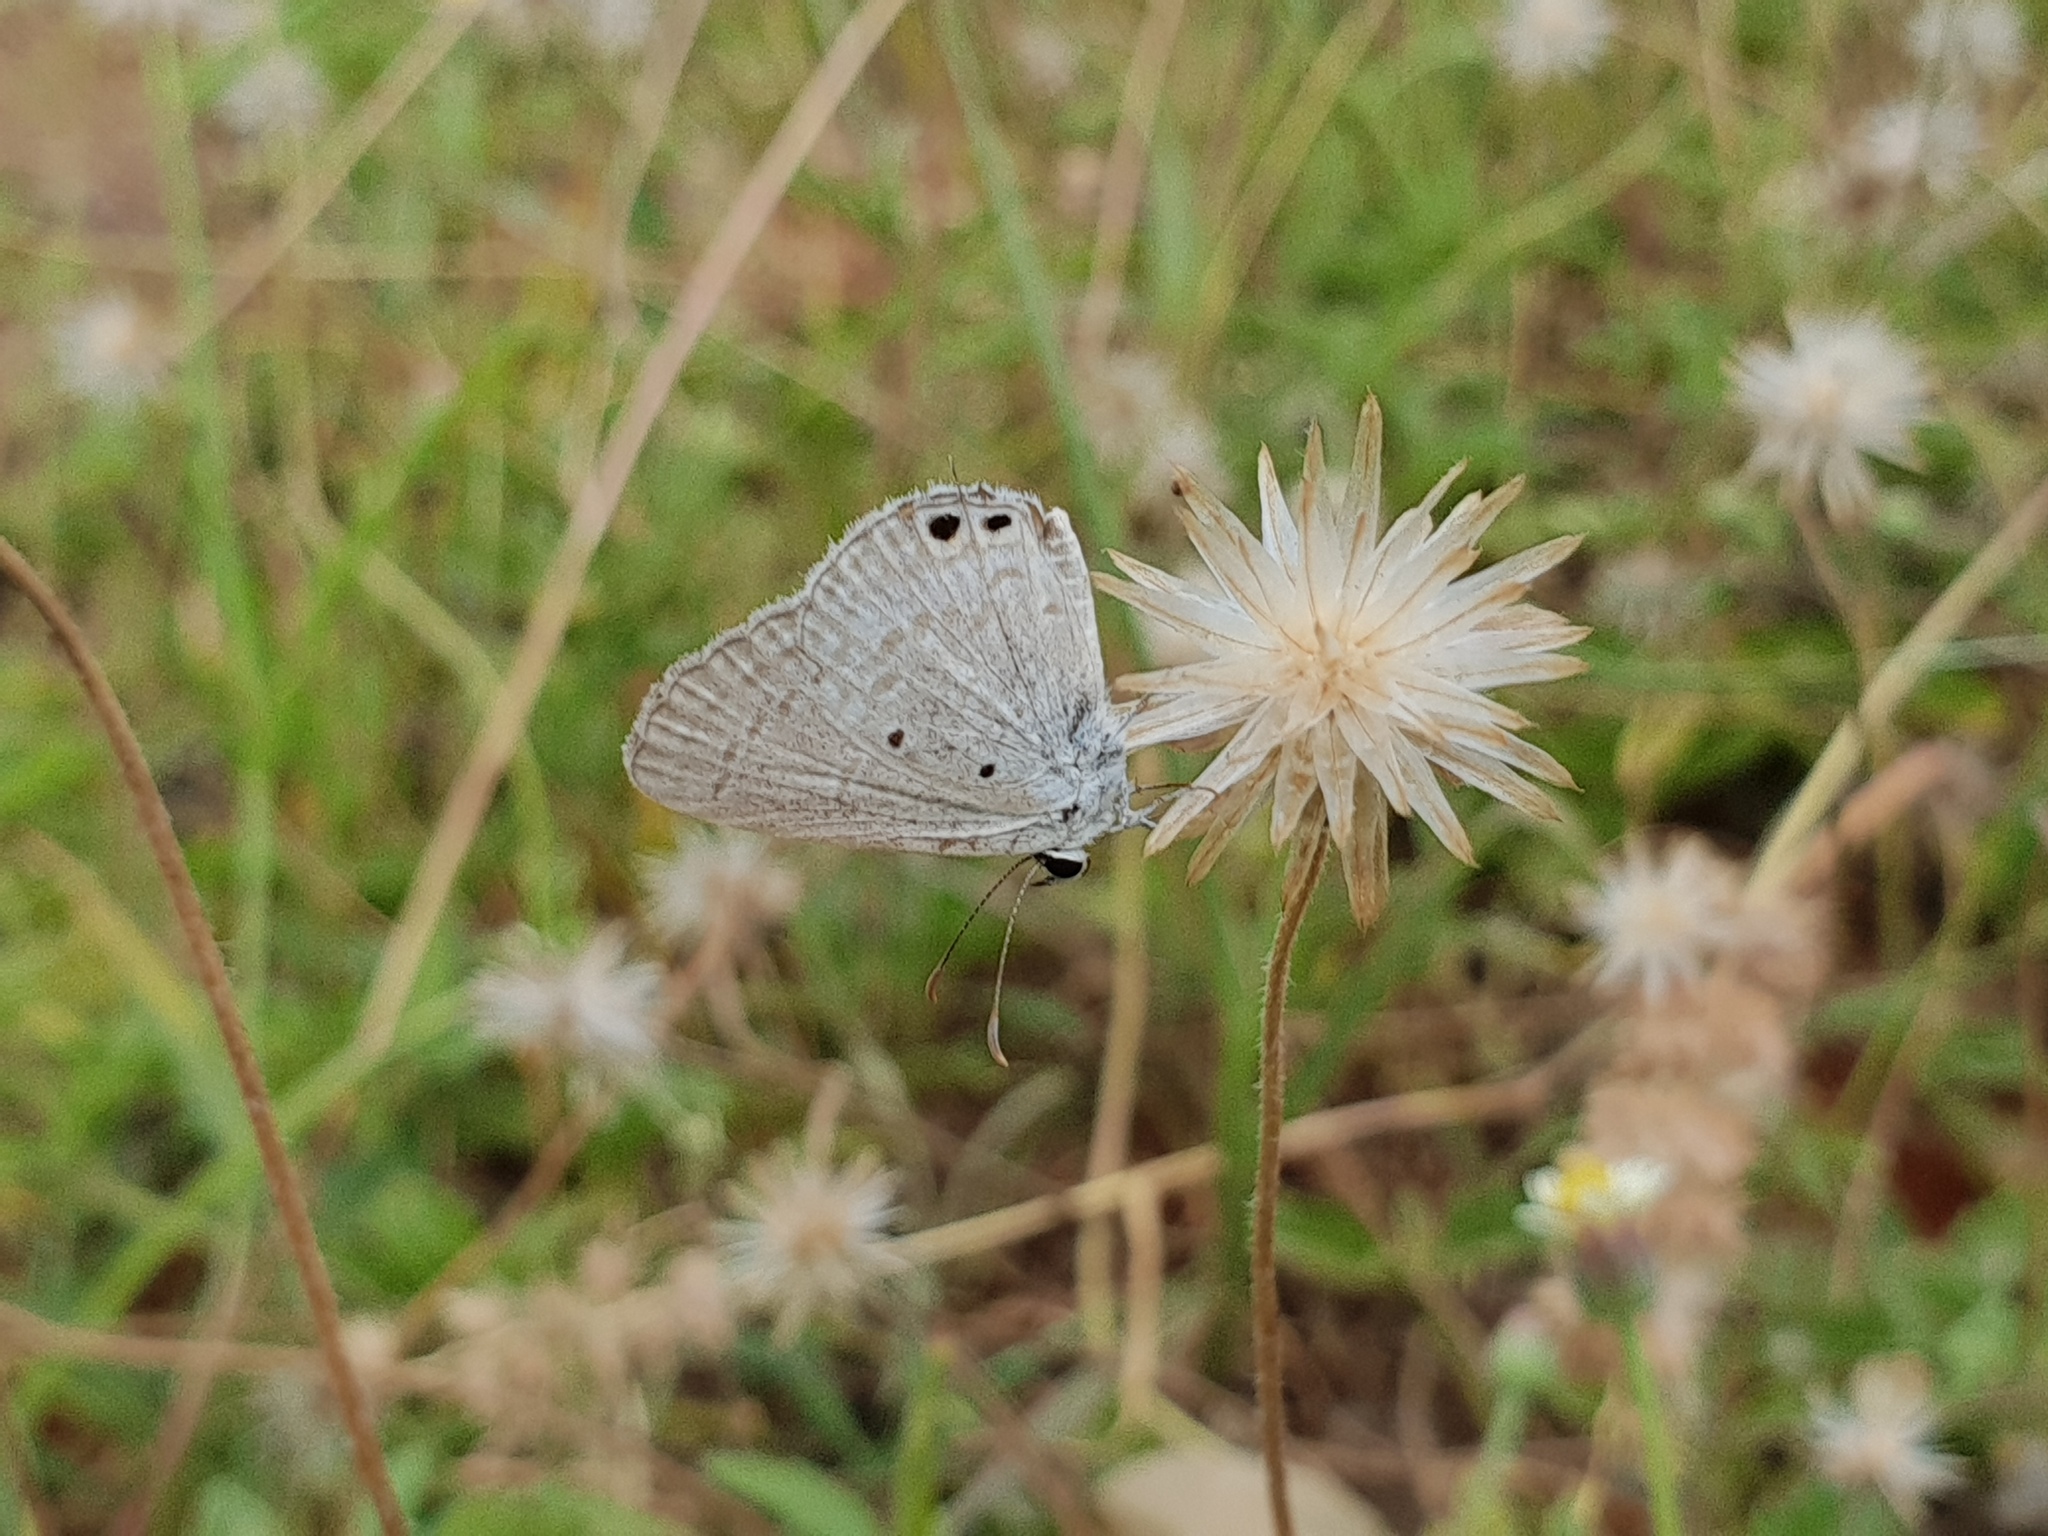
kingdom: Animalia
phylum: Arthropoda
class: Insecta
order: Lepidoptera
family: Lycaenidae
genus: Euchrysops
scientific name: Euchrysops cnejus
